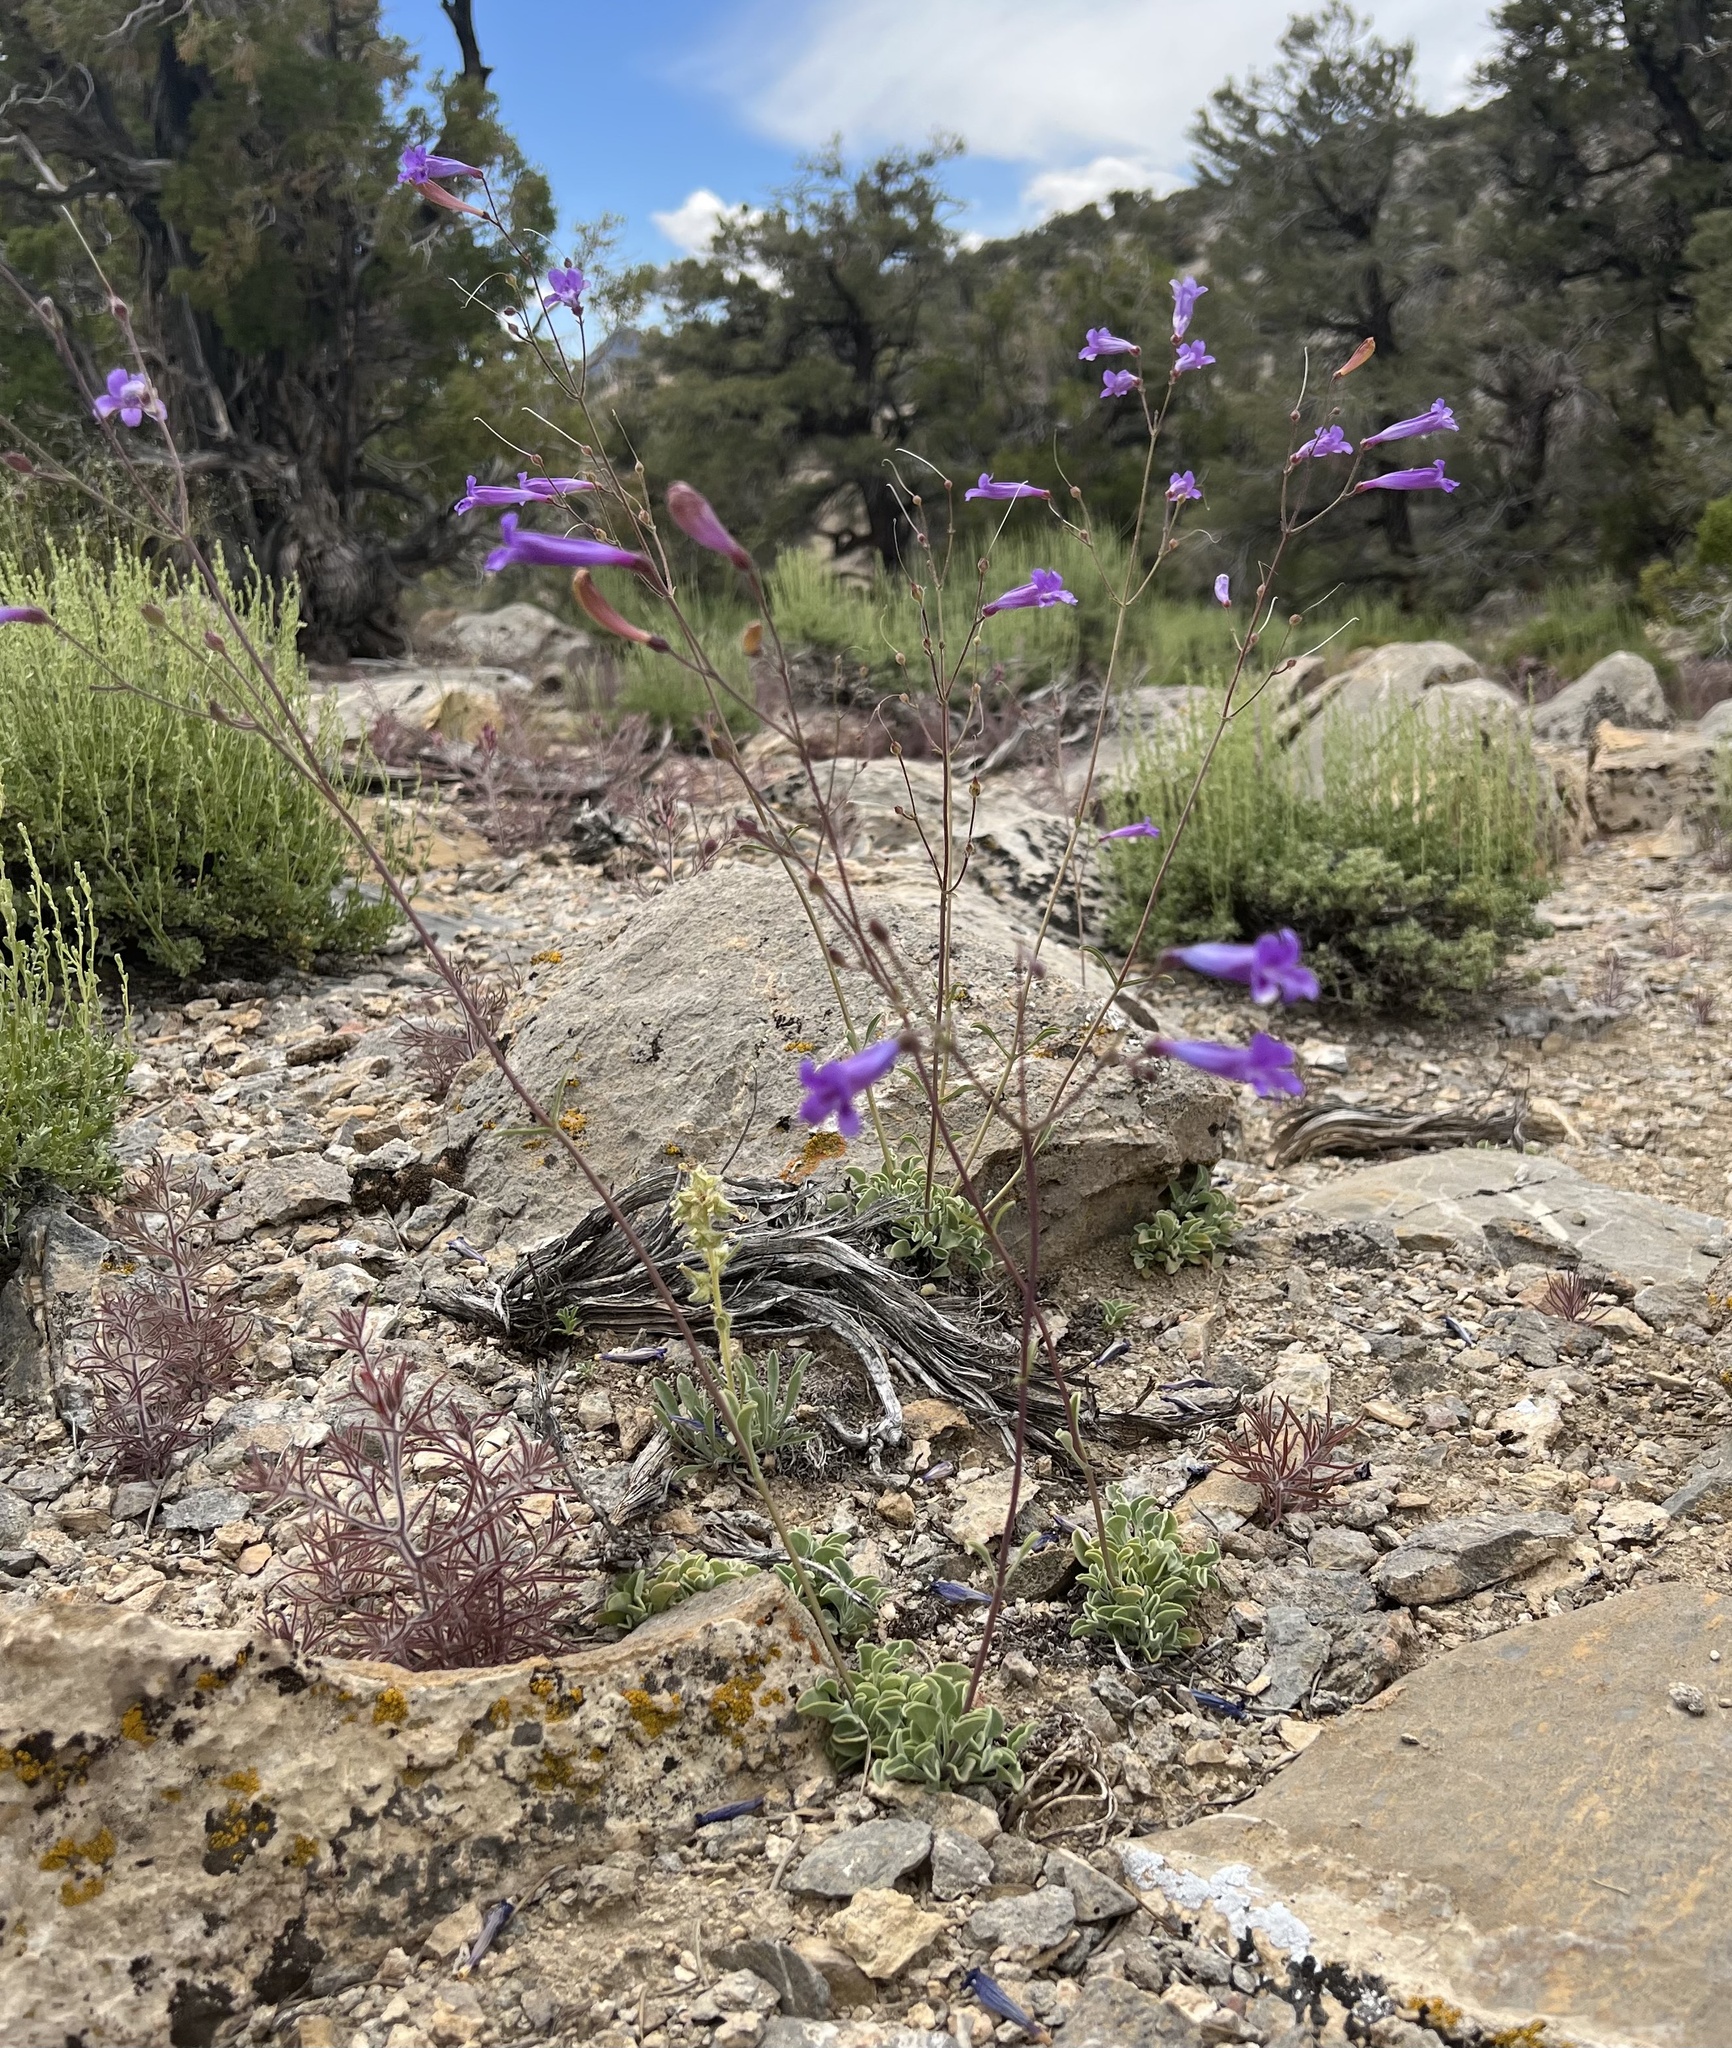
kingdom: Plantae
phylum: Tracheophyta
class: Magnoliopsida
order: Lamiales
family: Plantaginaceae
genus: Penstemon
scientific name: Penstemon scapoides
